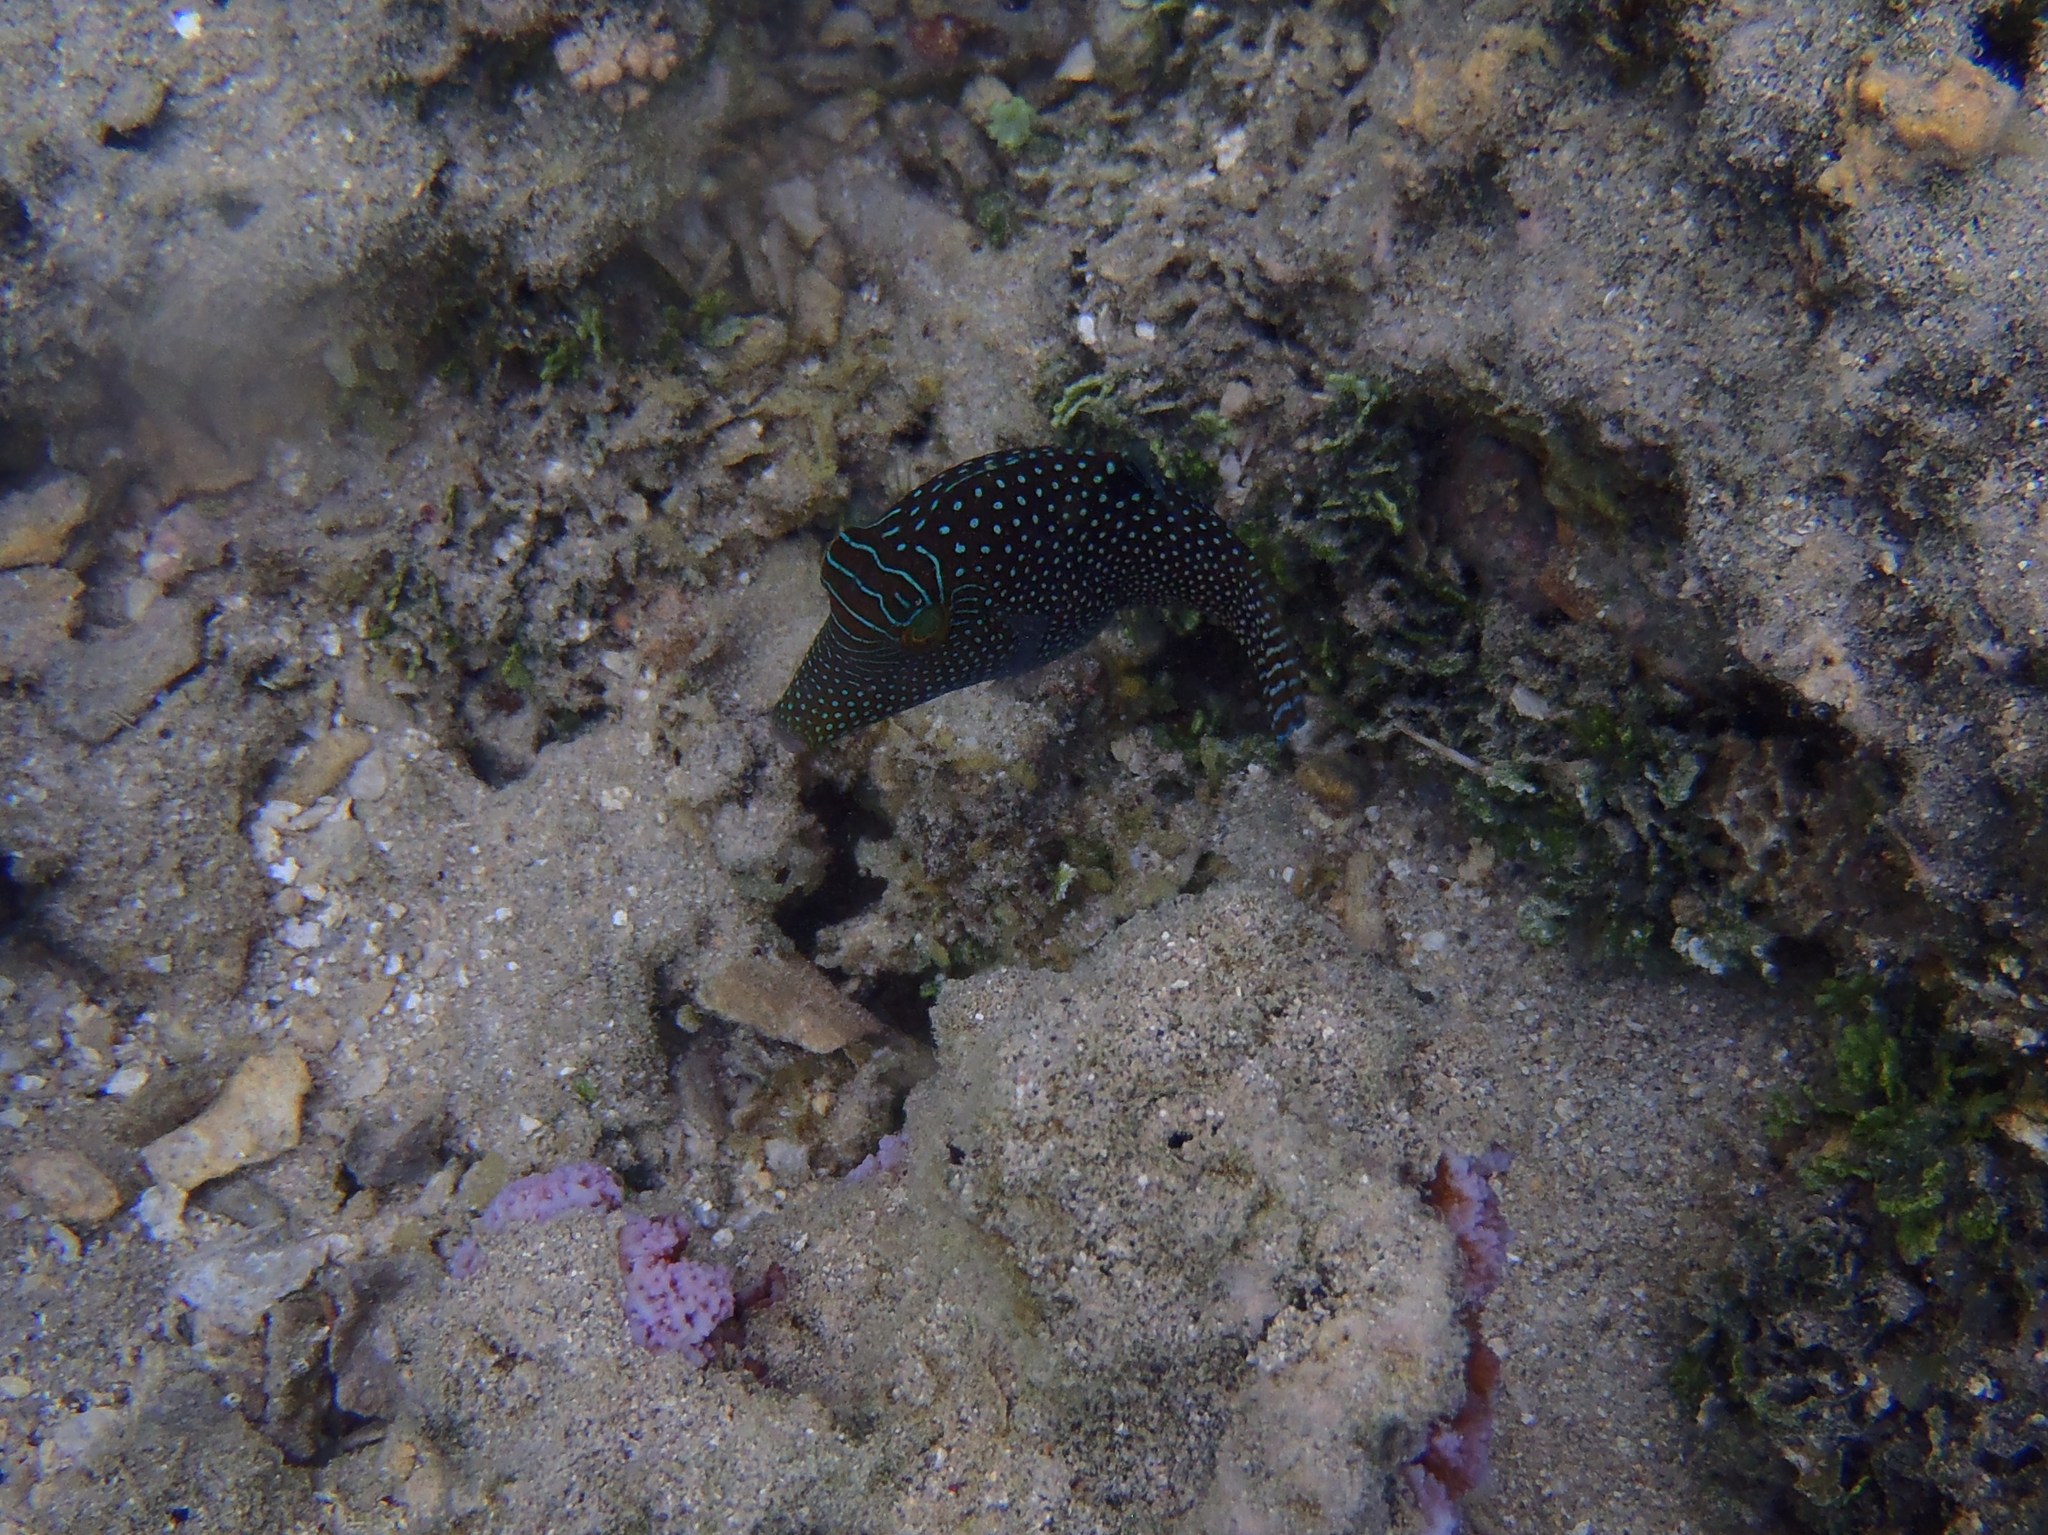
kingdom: Animalia
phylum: Chordata
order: Tetraodontiformes
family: Tetraodontidae
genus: Canthigaster
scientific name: Canthigaster solandri
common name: False-eye toby
